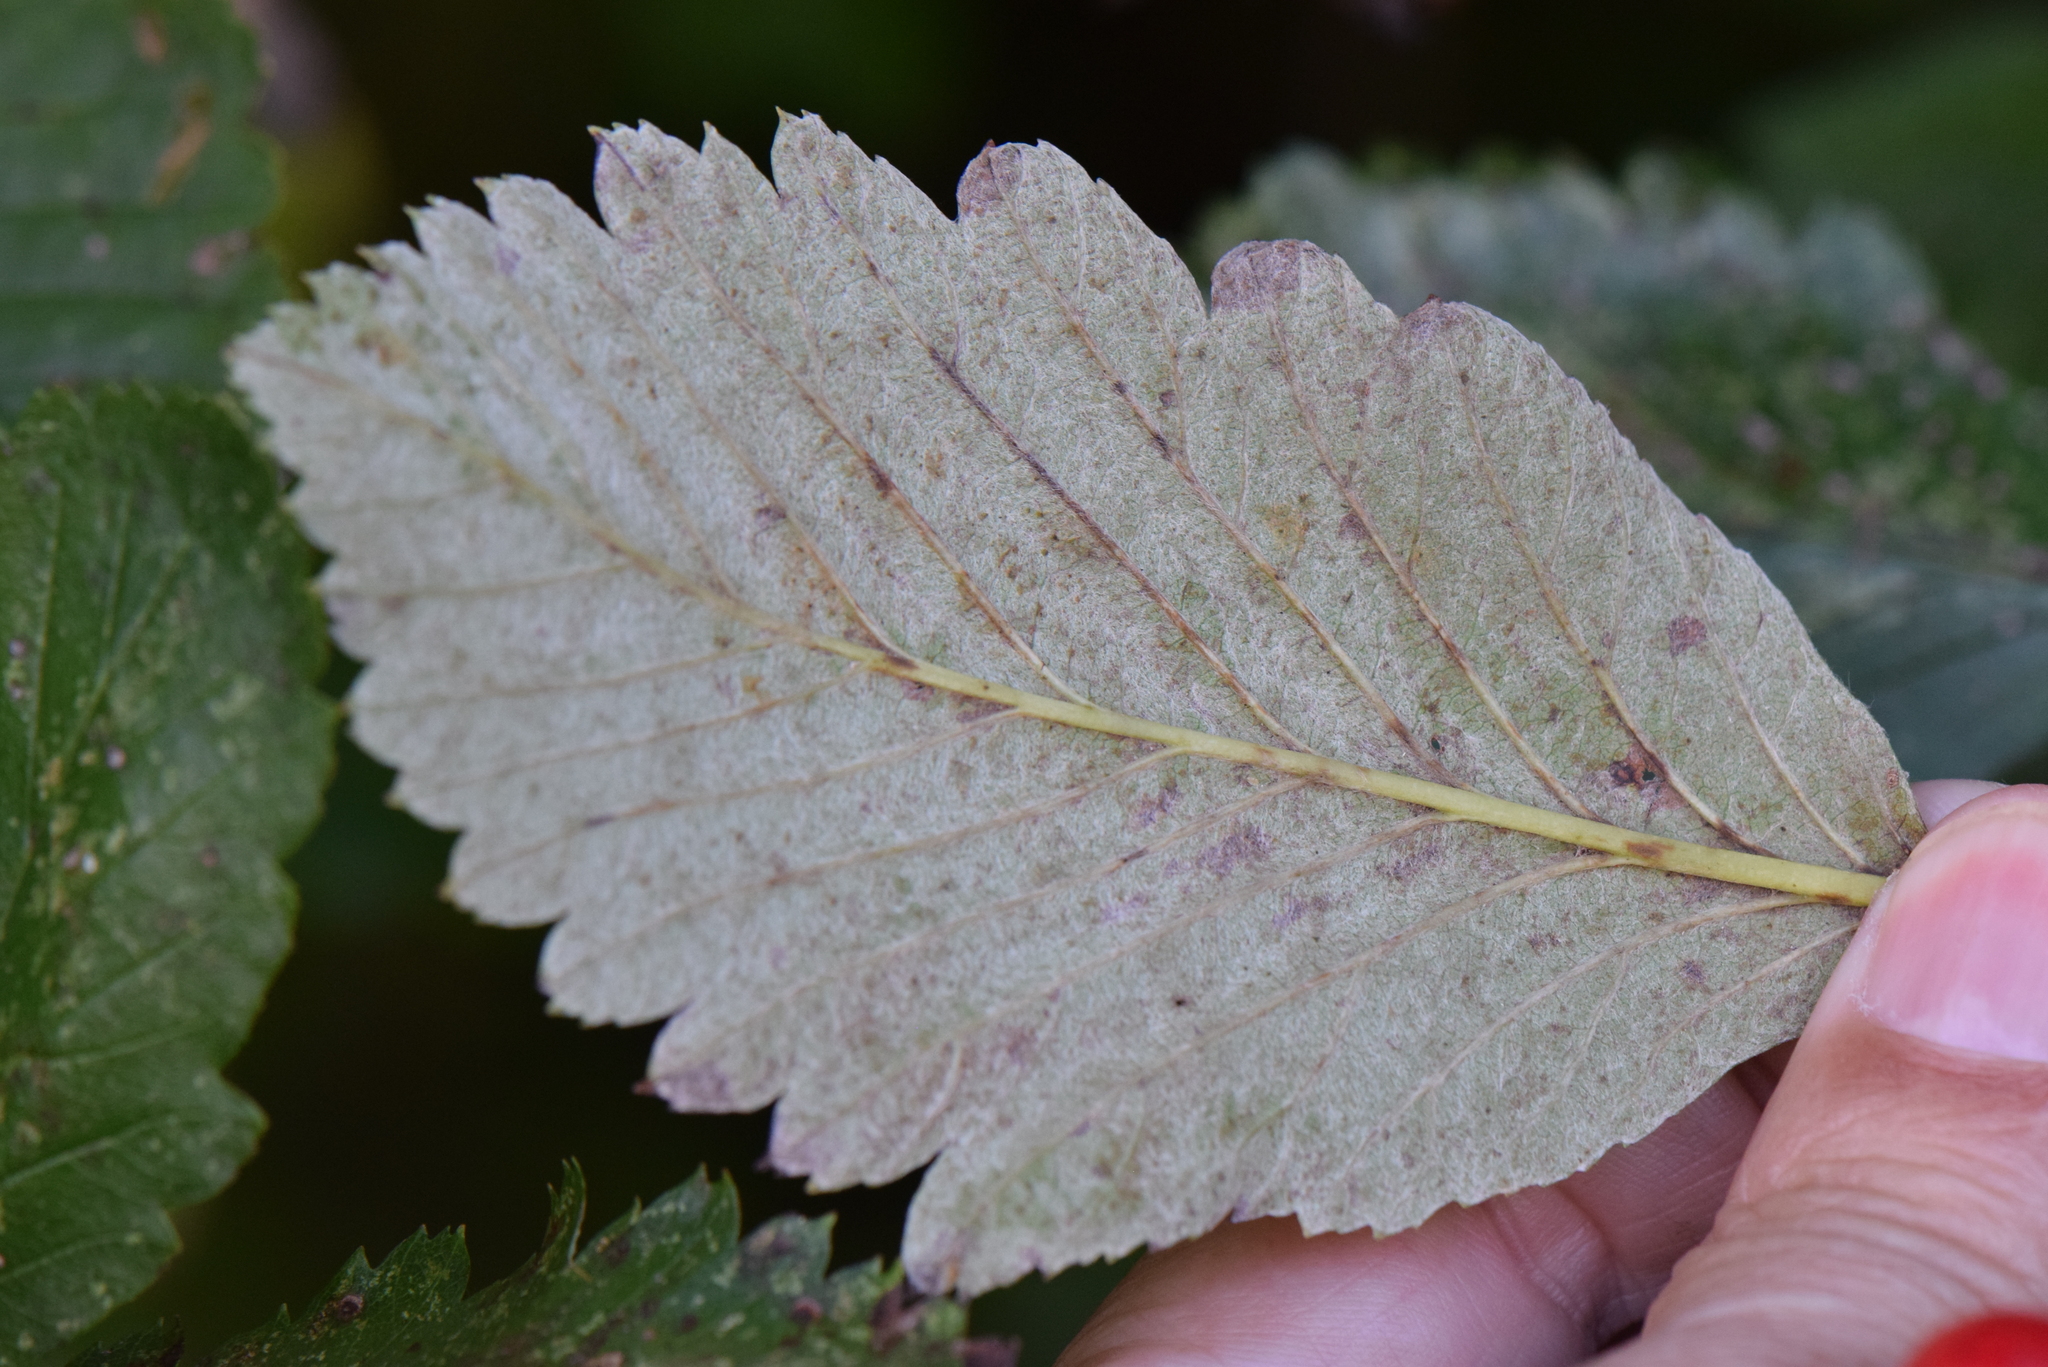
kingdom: Plantae
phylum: Tracheophyta
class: Magnoliopsida
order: Rosales
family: Rosaceae
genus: Hedlundia
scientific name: Hedlundia mougeotii
